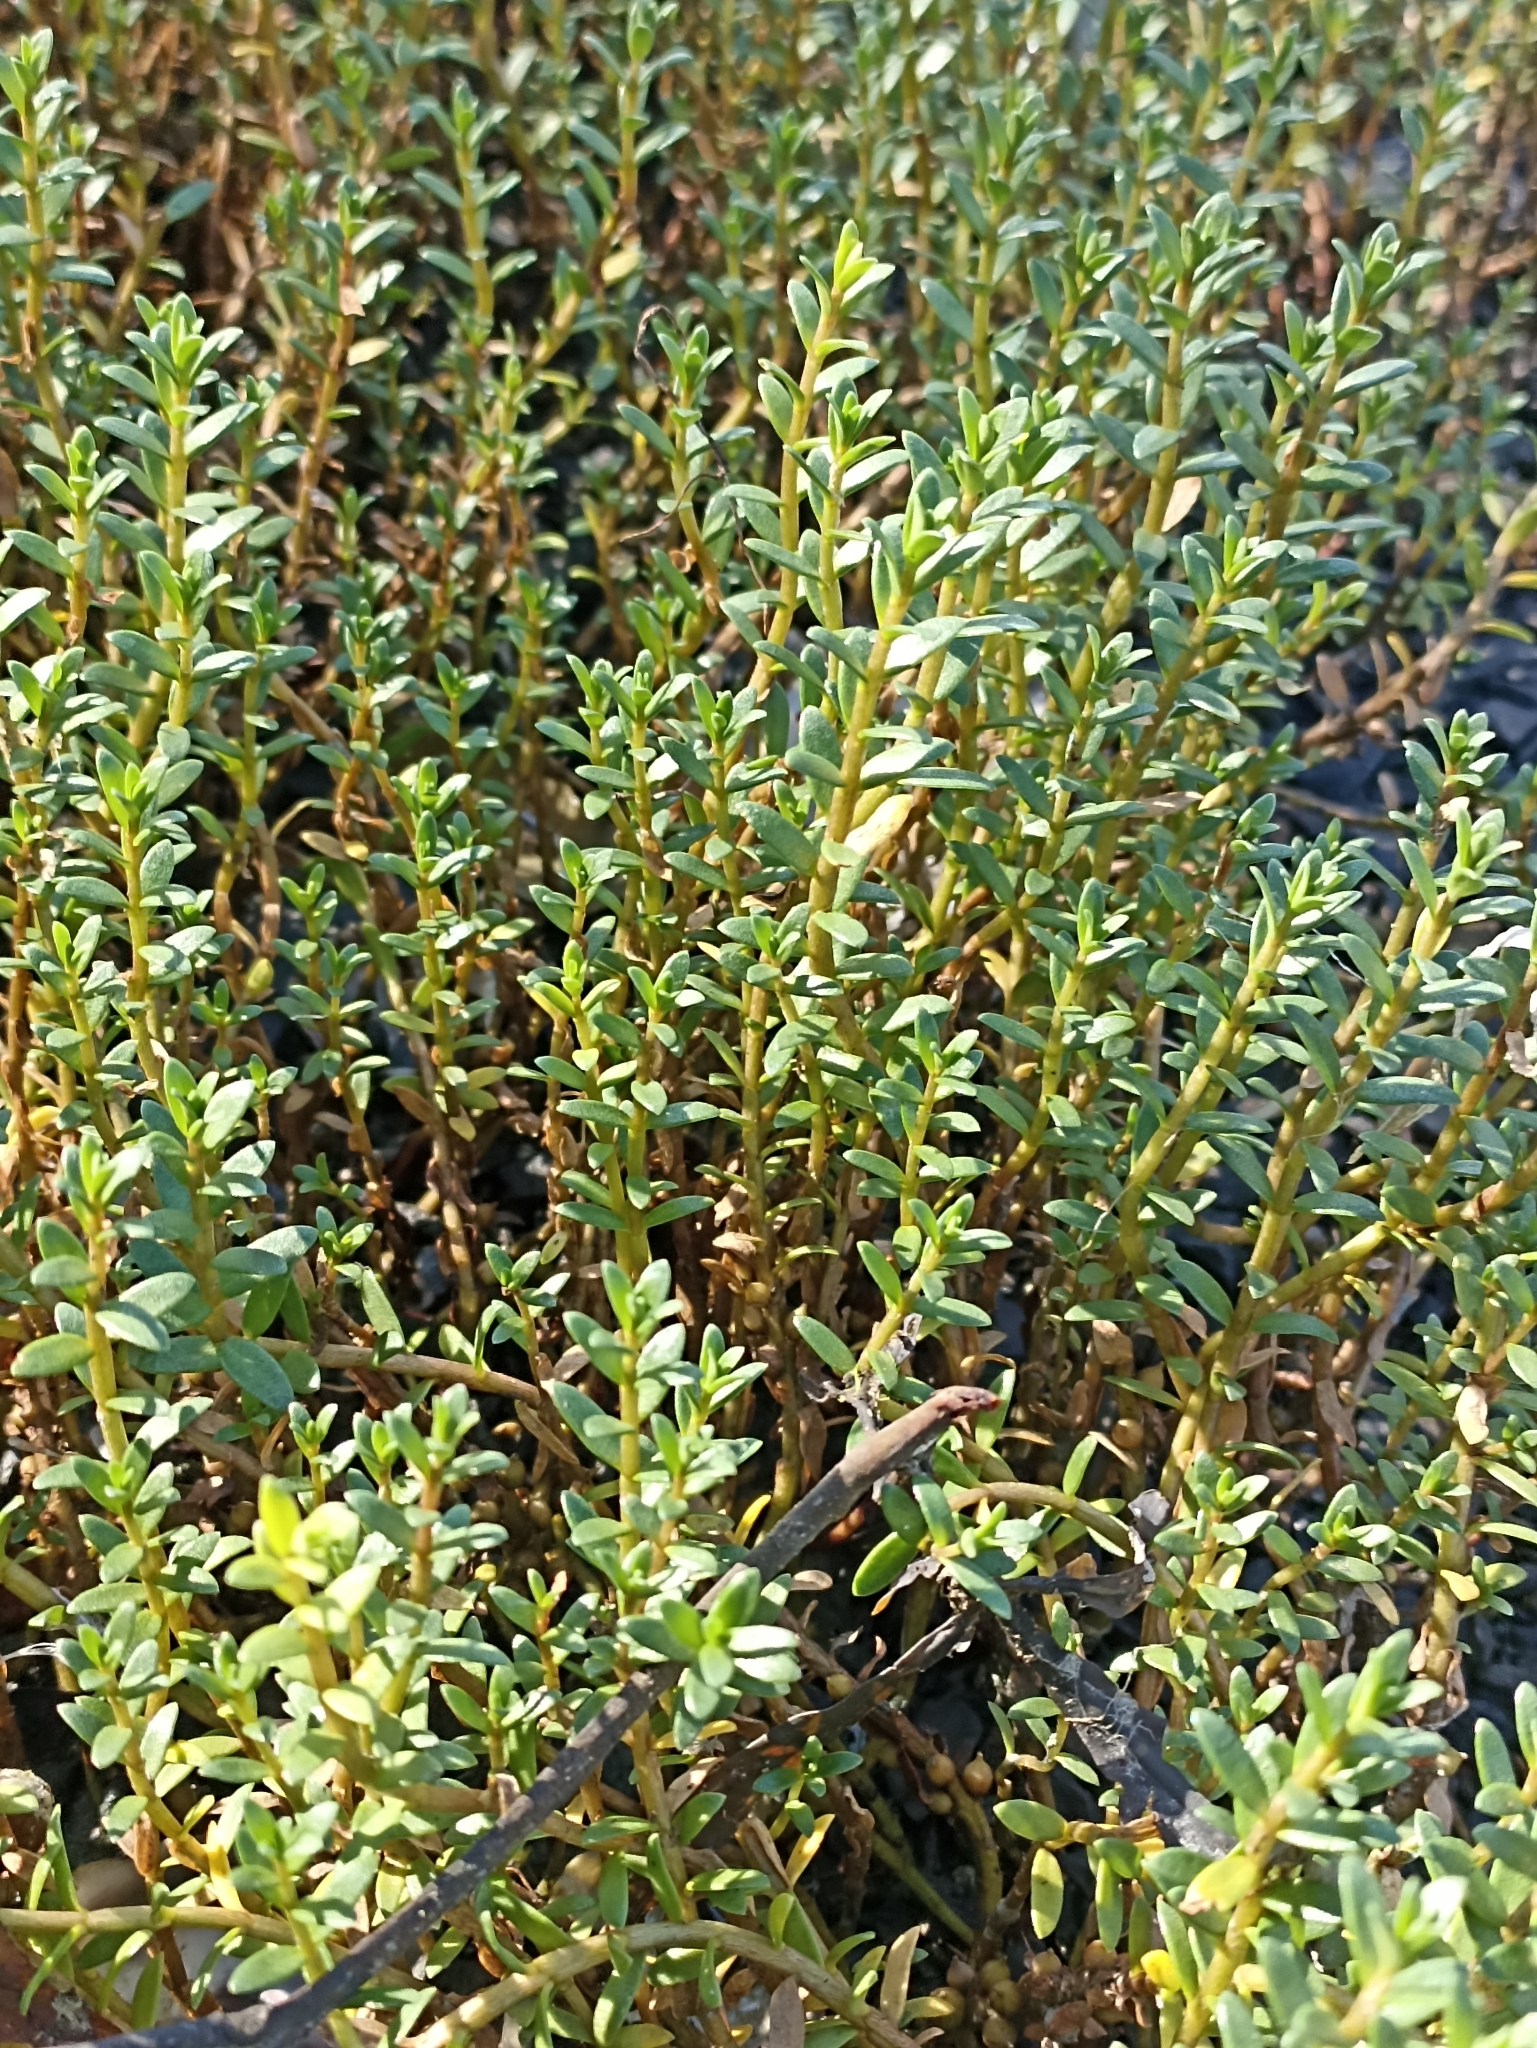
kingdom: Plantae
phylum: Tracheophyta
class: Magnoliopsida
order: Ericales
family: Primulaceae
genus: Lysimachia
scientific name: Lysimachia maritima
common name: Sea milkwort
